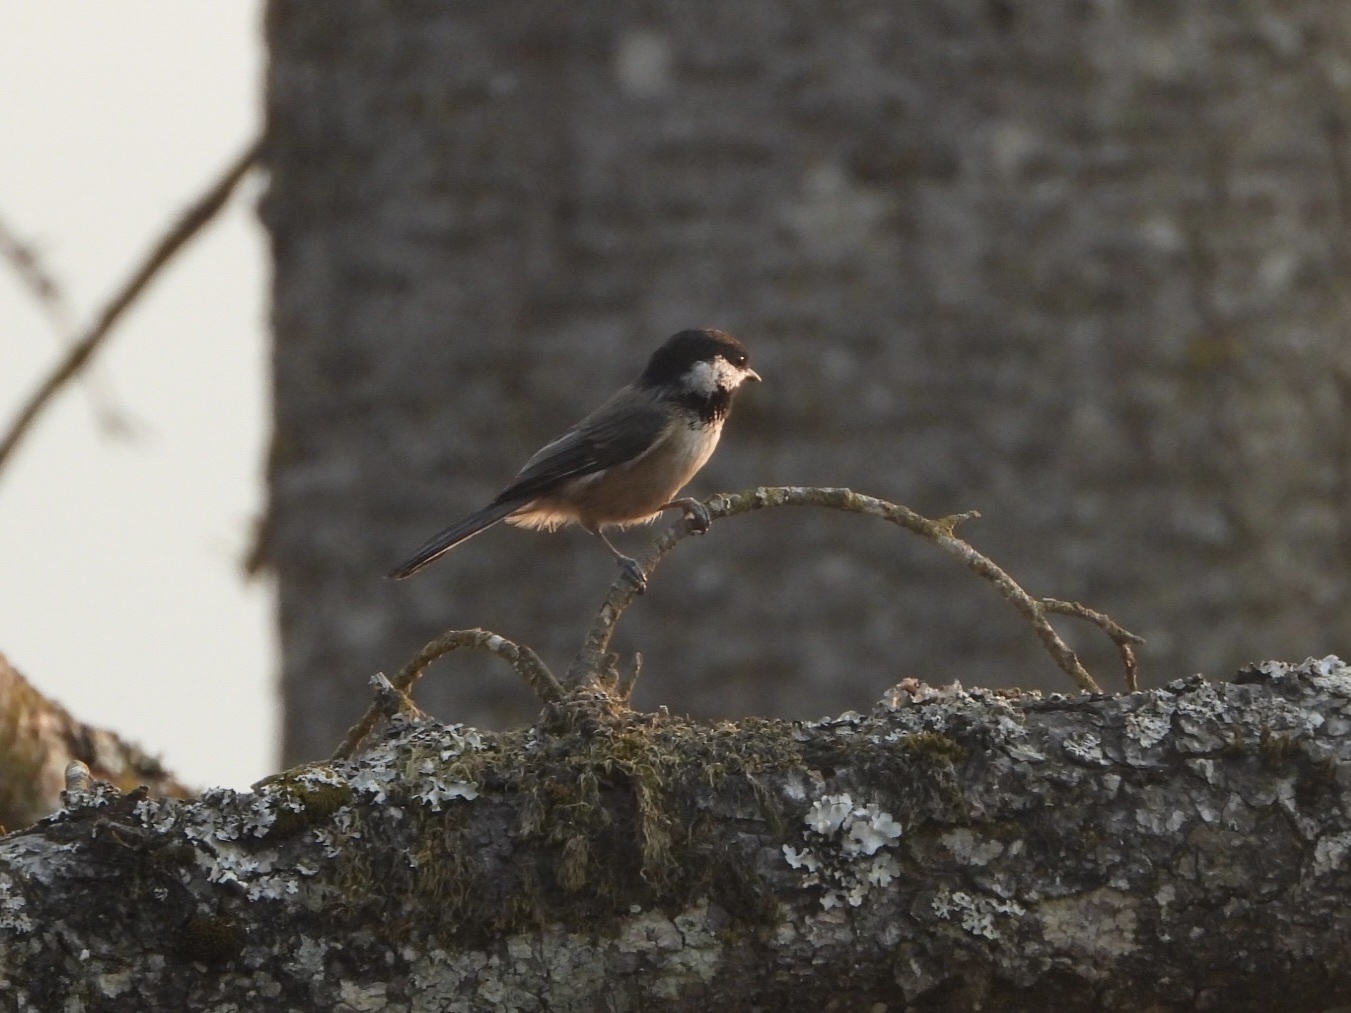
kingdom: Animalia
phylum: Chordata
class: Aves
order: Passeriformes
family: Paridae
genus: Poecile
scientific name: Poecile atricapillus
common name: Black-capped chickadee
